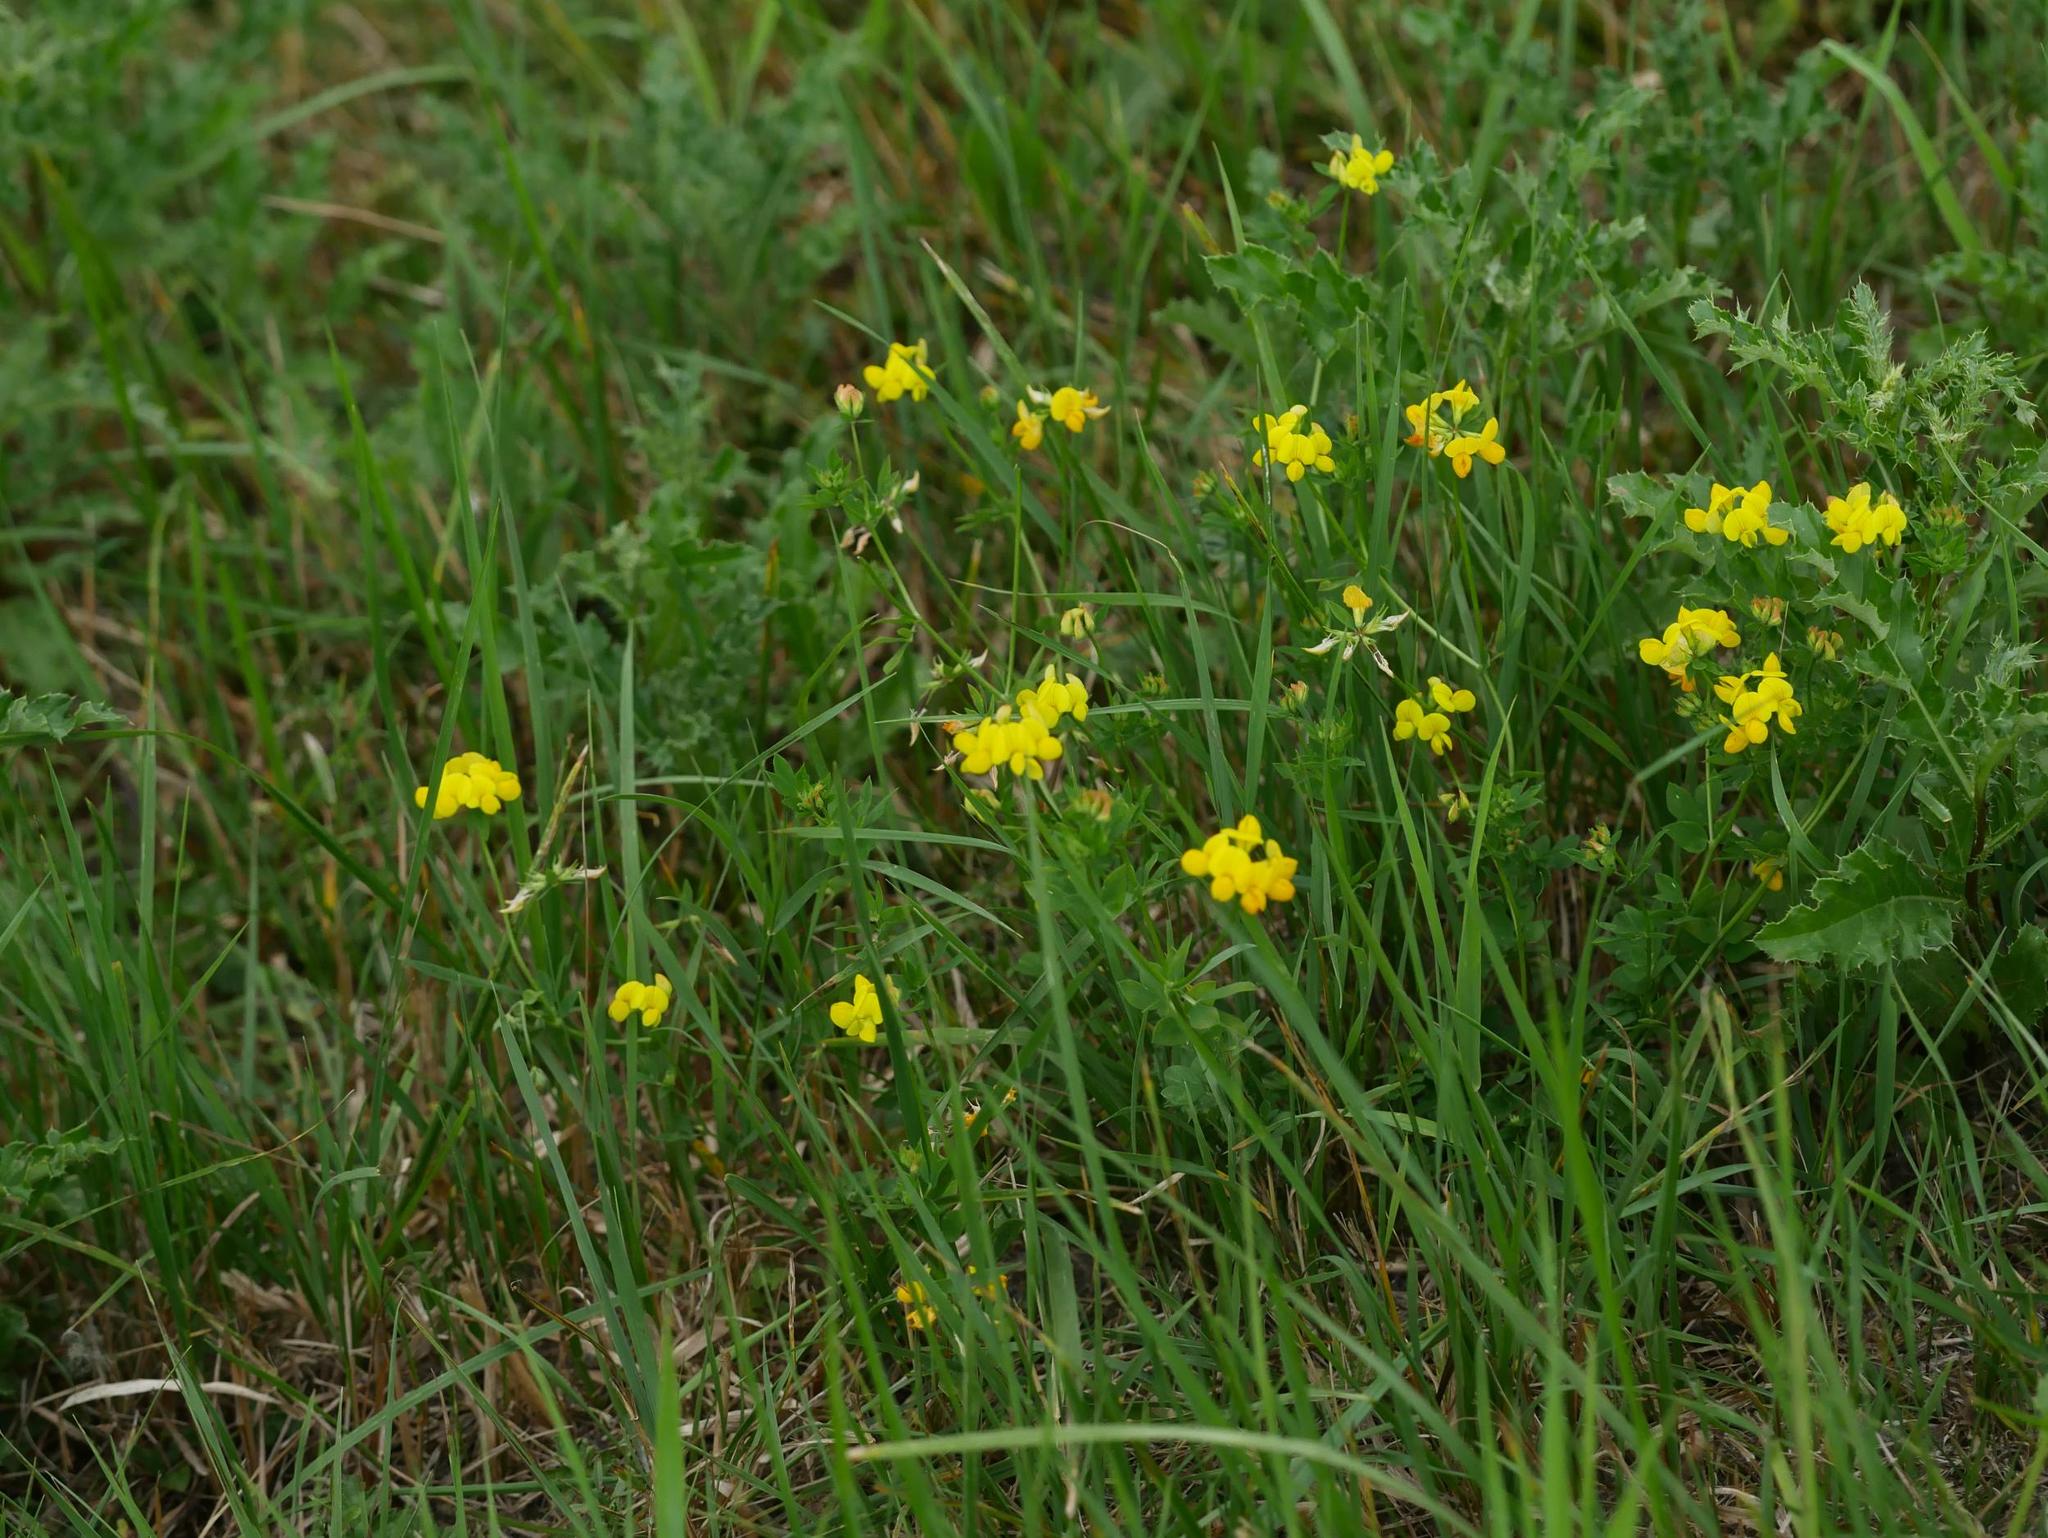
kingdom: Plantae
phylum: Tracheophyta
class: Magnoliopsida
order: Fabales
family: Fabaceae
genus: Lotus
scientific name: Lotus corniculatus
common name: Common bird's-foot-trefoil
